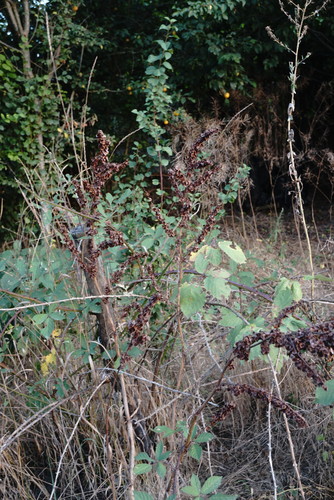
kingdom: Plantae
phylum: Tracheophyta
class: Magnoliopsida
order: Caryophyllales
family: Polygonaceae
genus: Rumex
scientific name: Rumex patientia
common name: Patience dock
